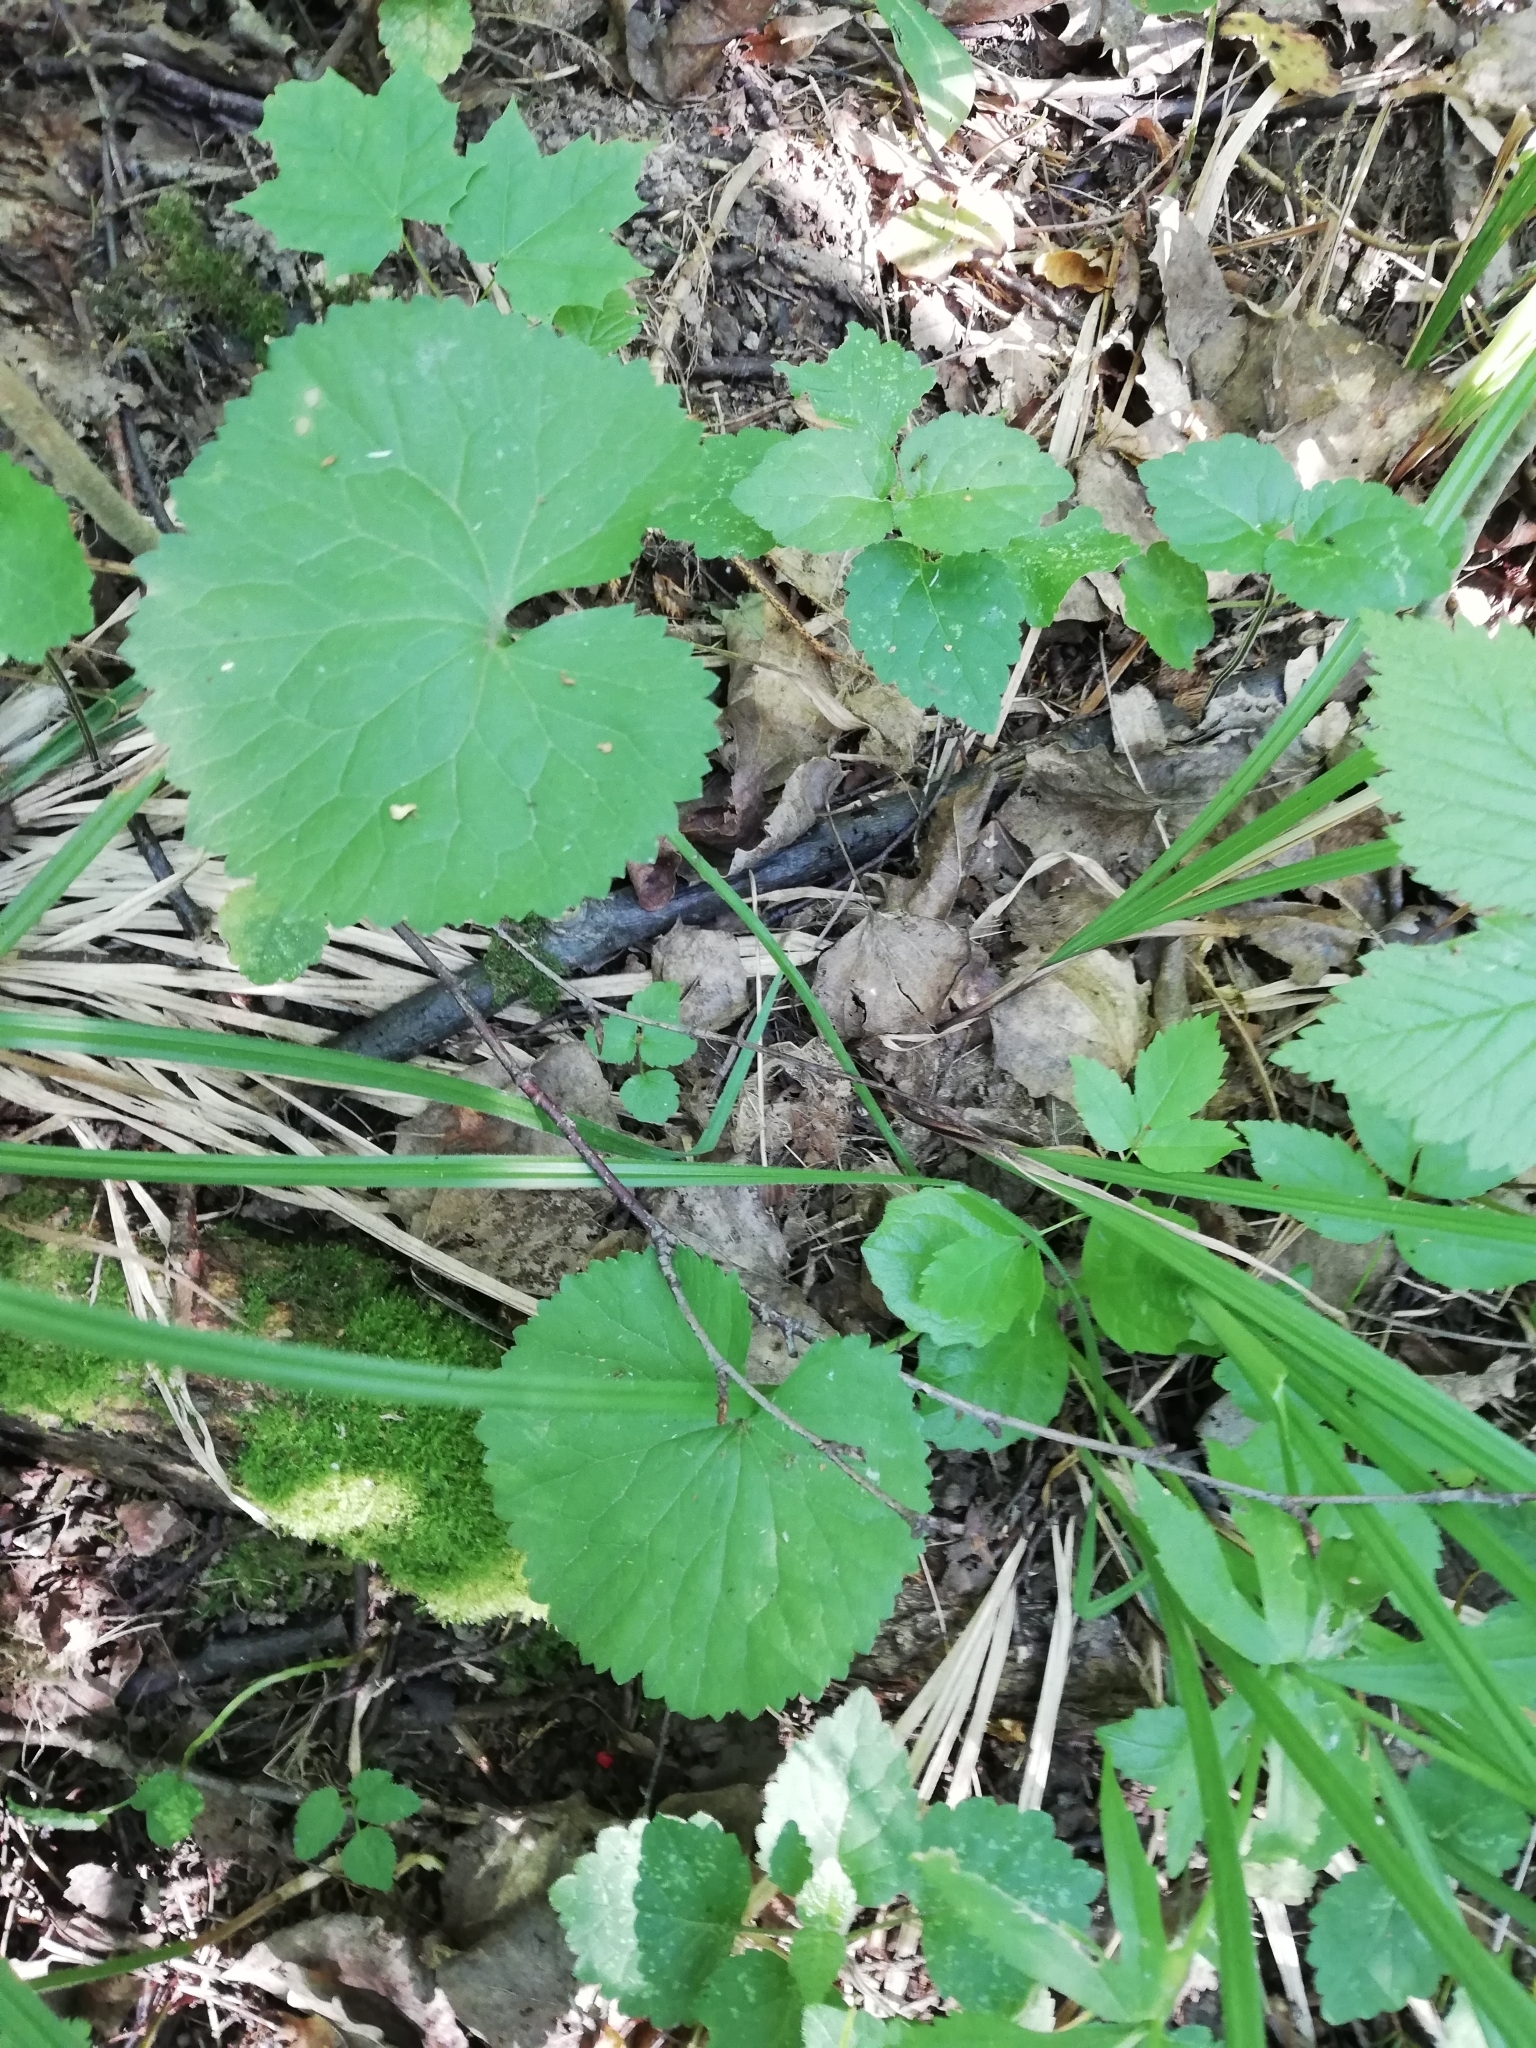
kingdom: Plantae
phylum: Tracheophyta
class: Magnoliopsida
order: Ranunculales
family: Ranunculaceae
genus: Ranunculus
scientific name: Ranunculus cassubicus
